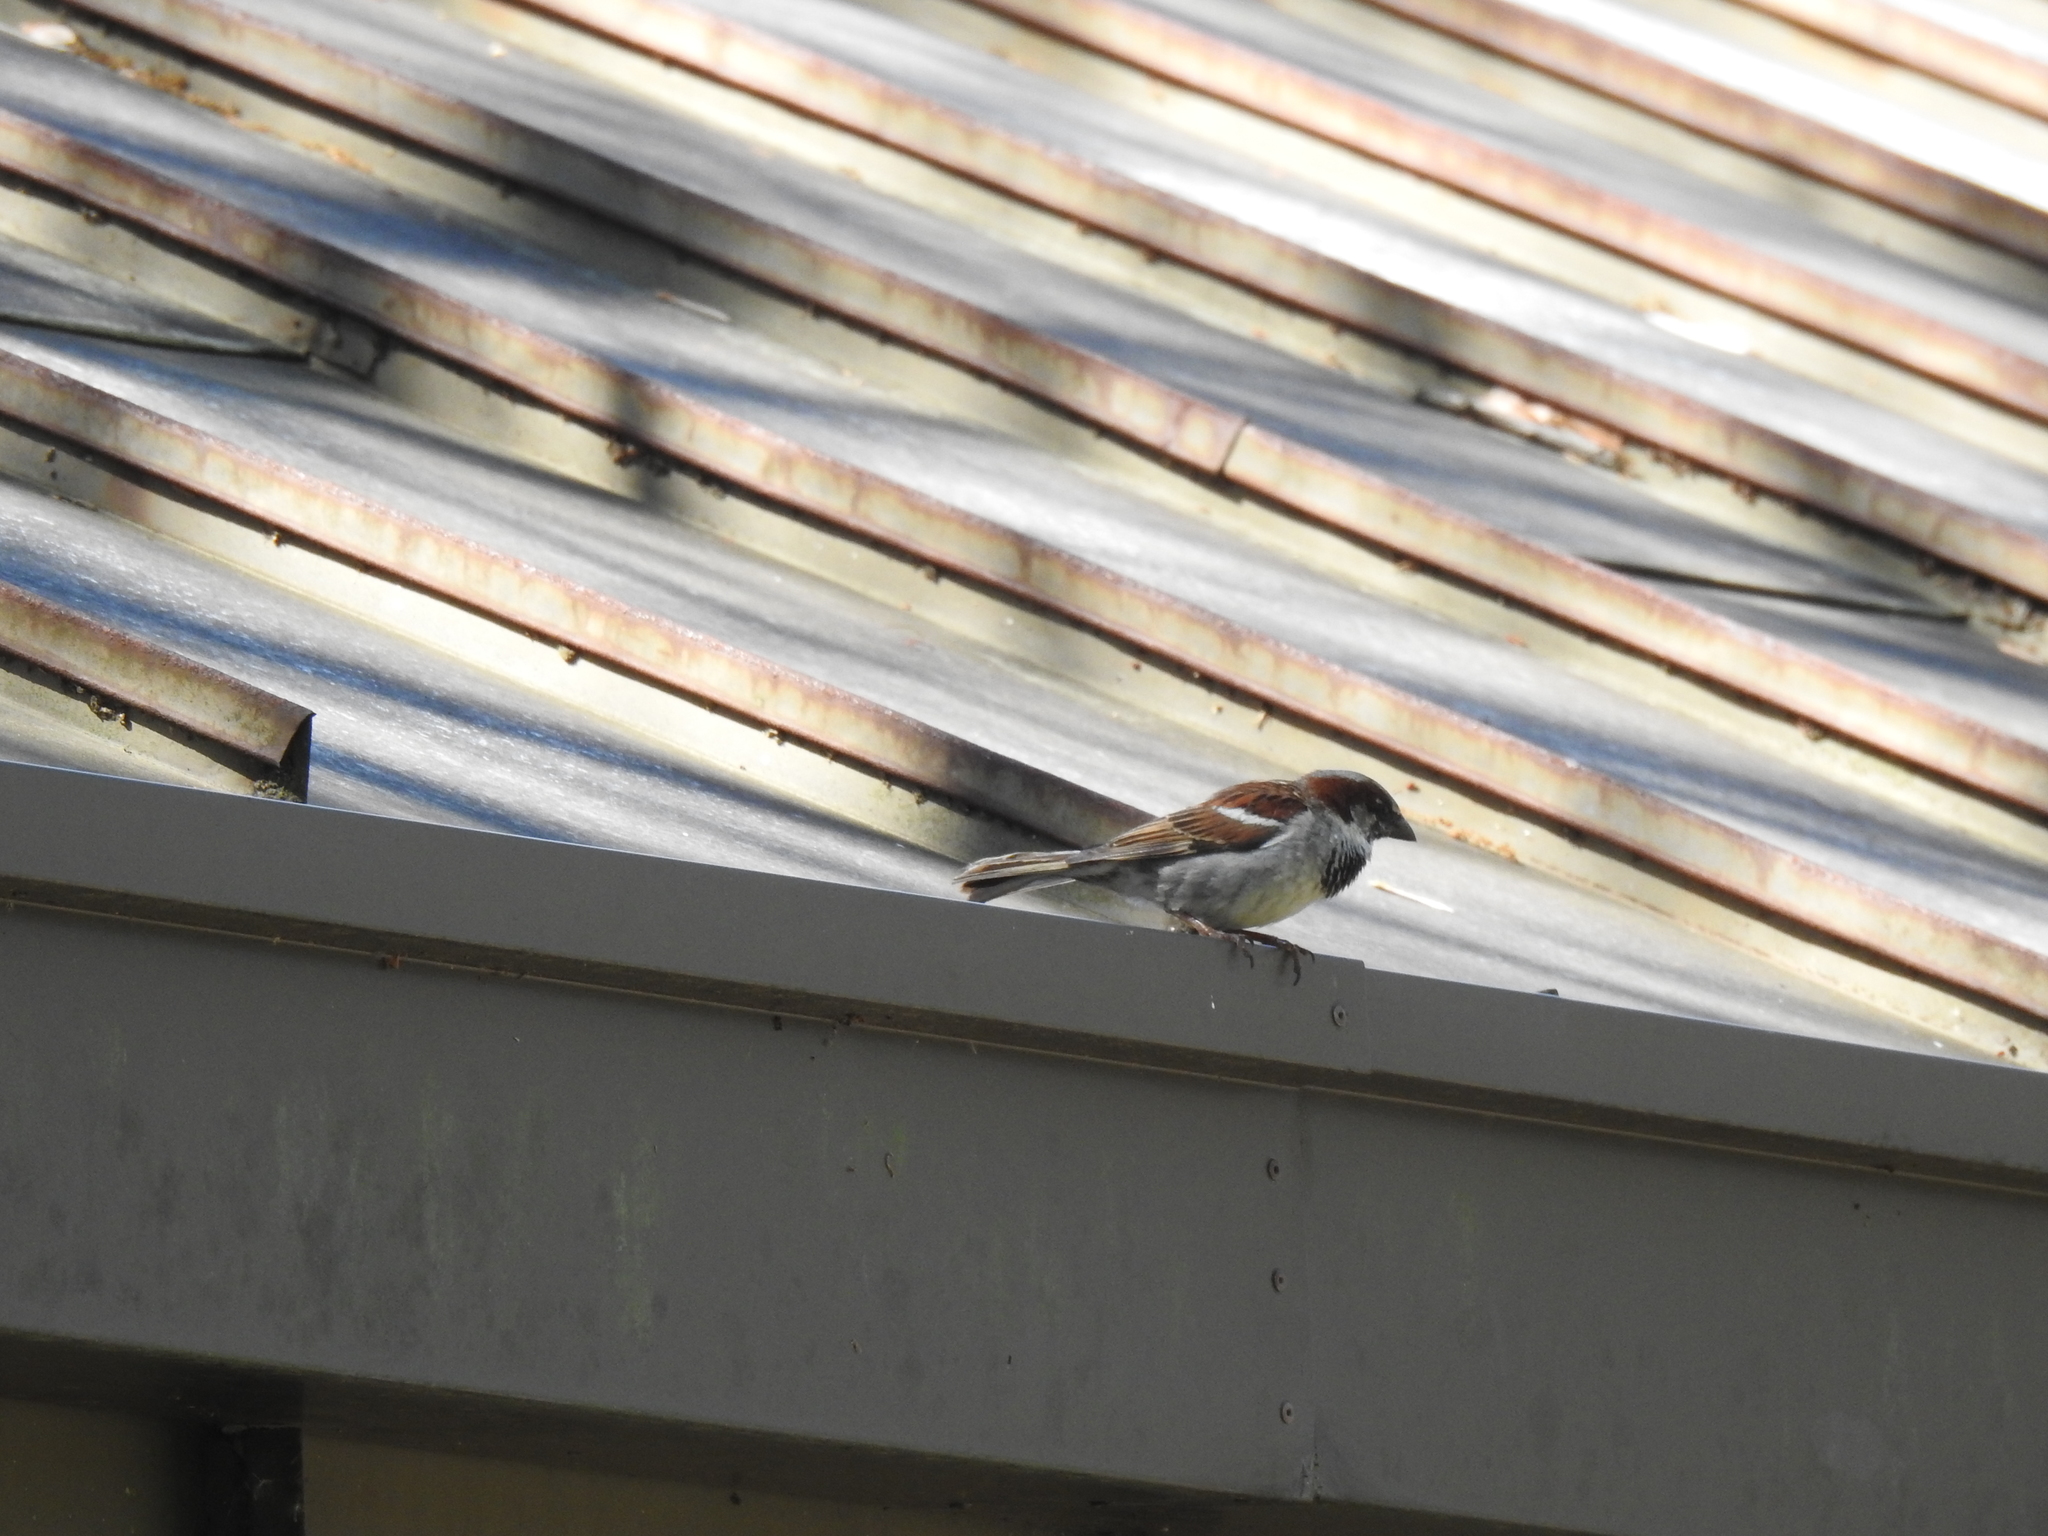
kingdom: Animalia
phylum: Chordata
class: Aves
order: Passeriformes
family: Passeridae
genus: Passer
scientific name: Passer domesticus
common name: House sparrow
